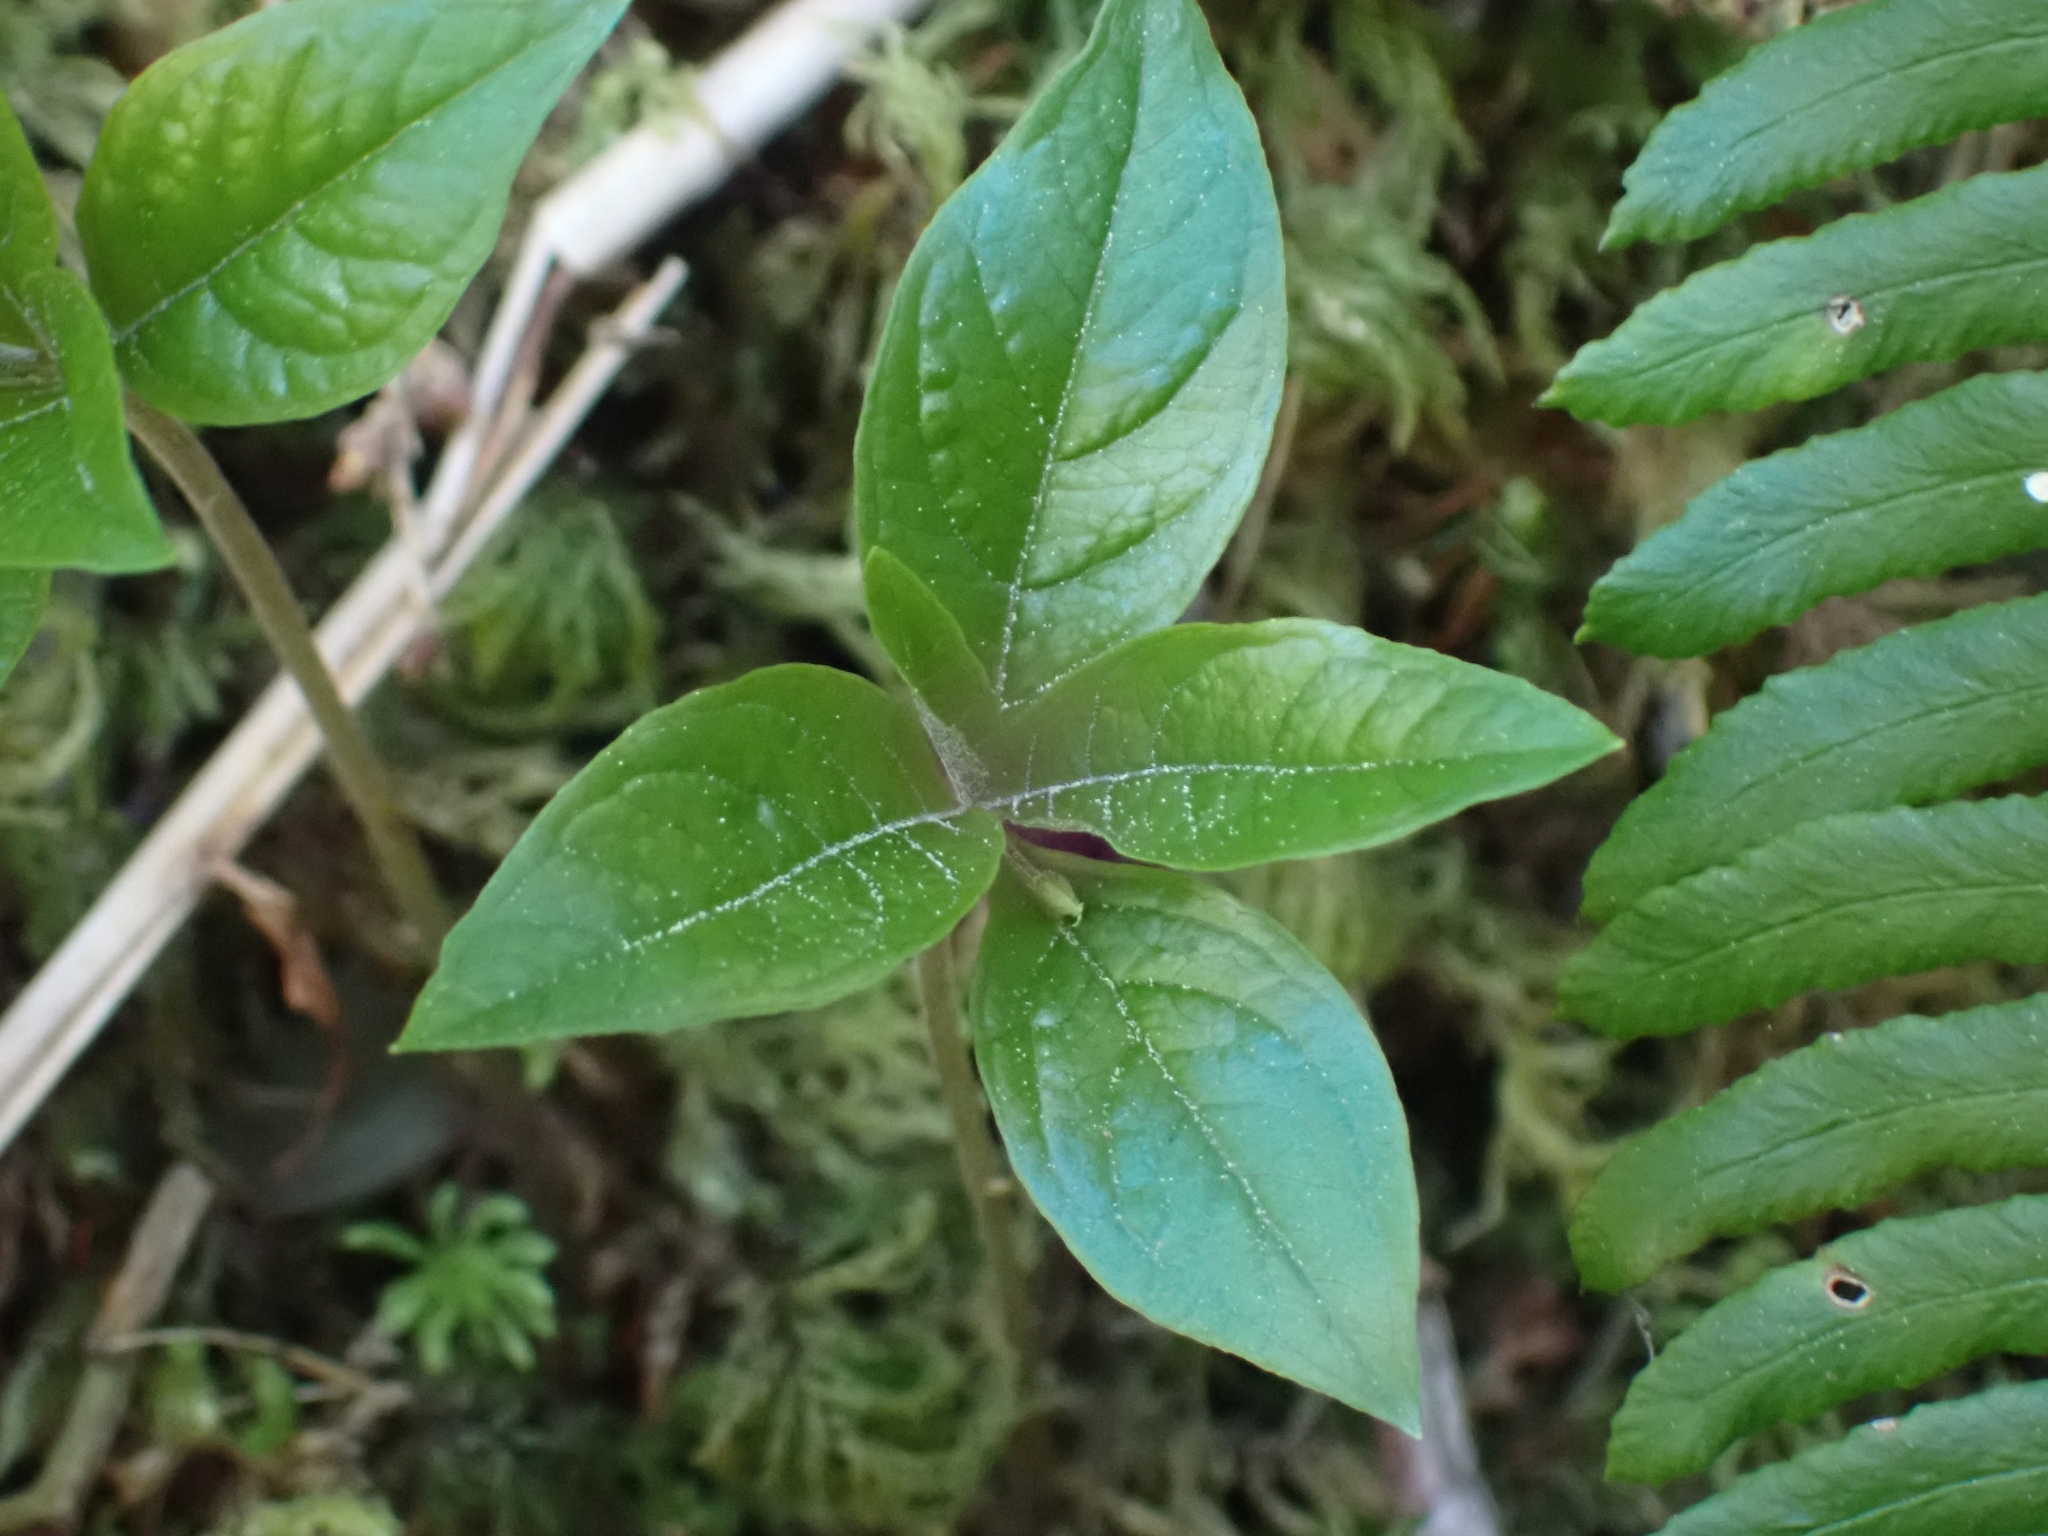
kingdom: Plantae
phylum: Tracheophyta
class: Magnoliopsida
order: Ericales
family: Primulaceae
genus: Lysimachia
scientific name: Lysimachia latifolia
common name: Pacific starflower
